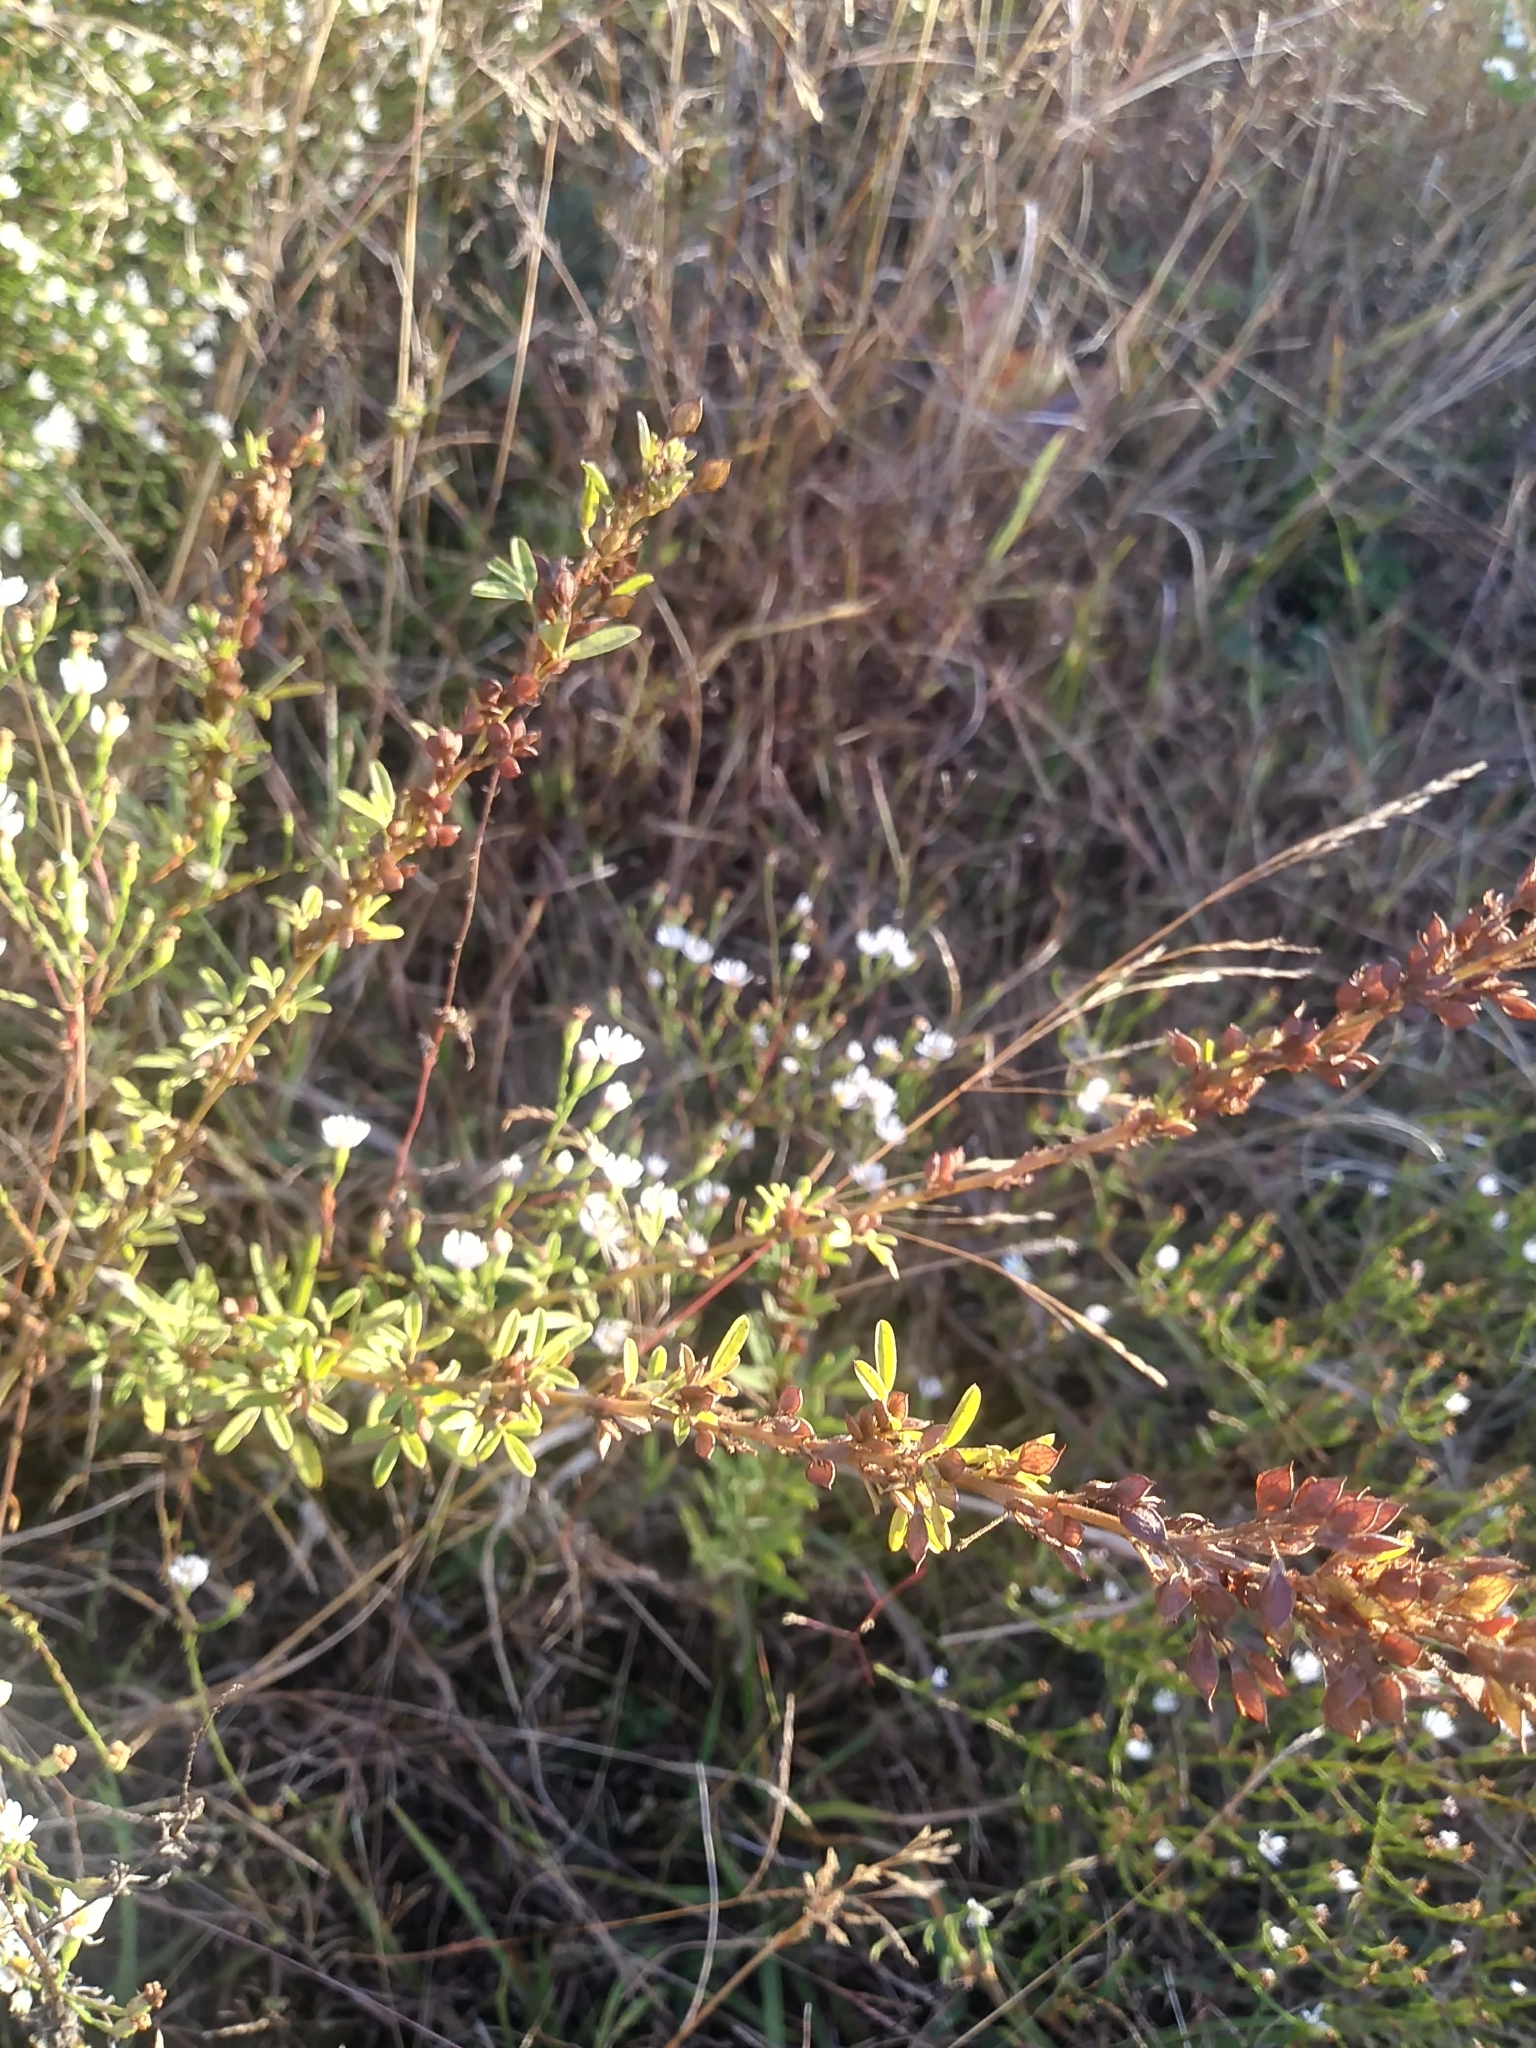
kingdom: Plantae
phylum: Tracheophyta
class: Magnoliopsida
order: Fabales
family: Fabaceae
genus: Lespedeza
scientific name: Lespedeza cuneata
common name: Chinese bush-clover
